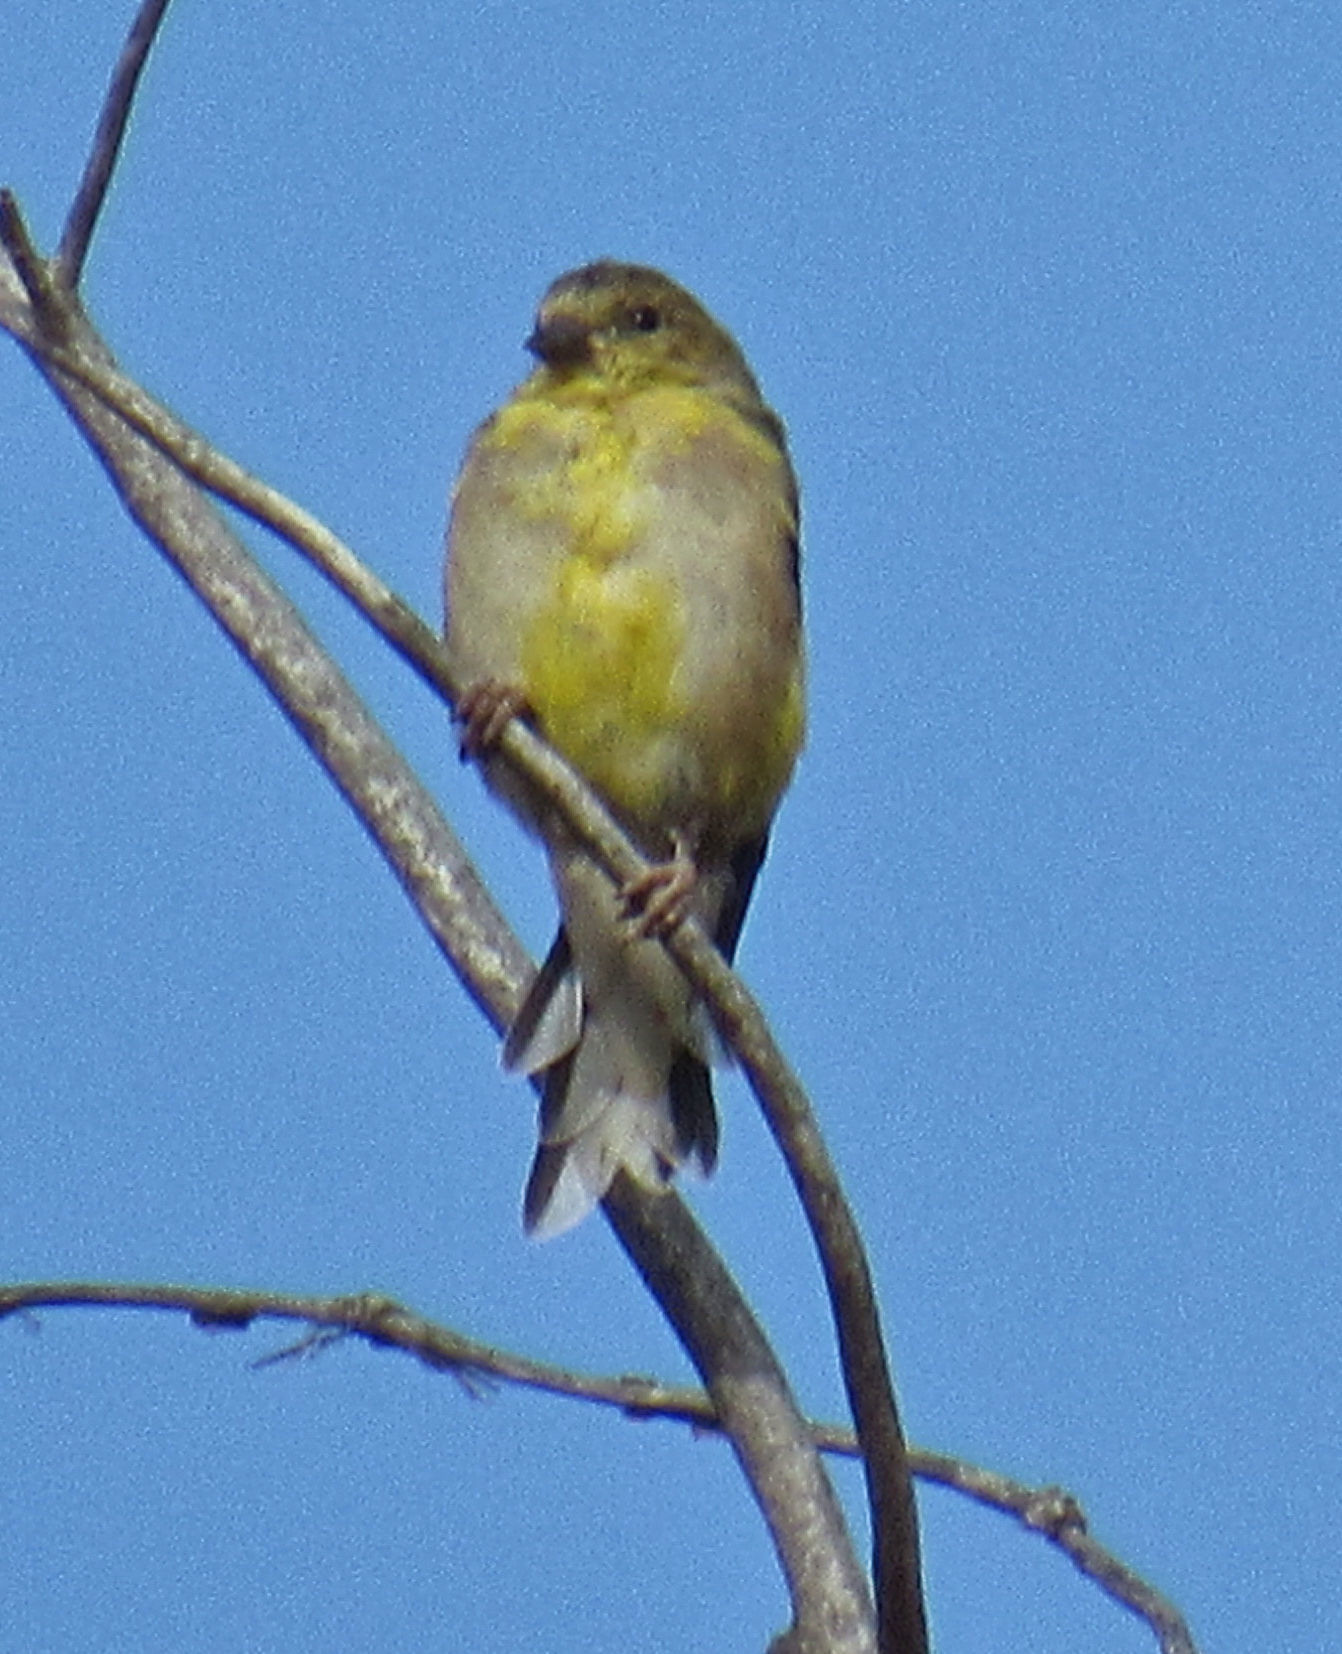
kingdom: Animalia
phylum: Chordata
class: Aves
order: Passeriformes
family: Fringillidae
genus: Spinus
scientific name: Spinus tristis
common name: American goldfinch
